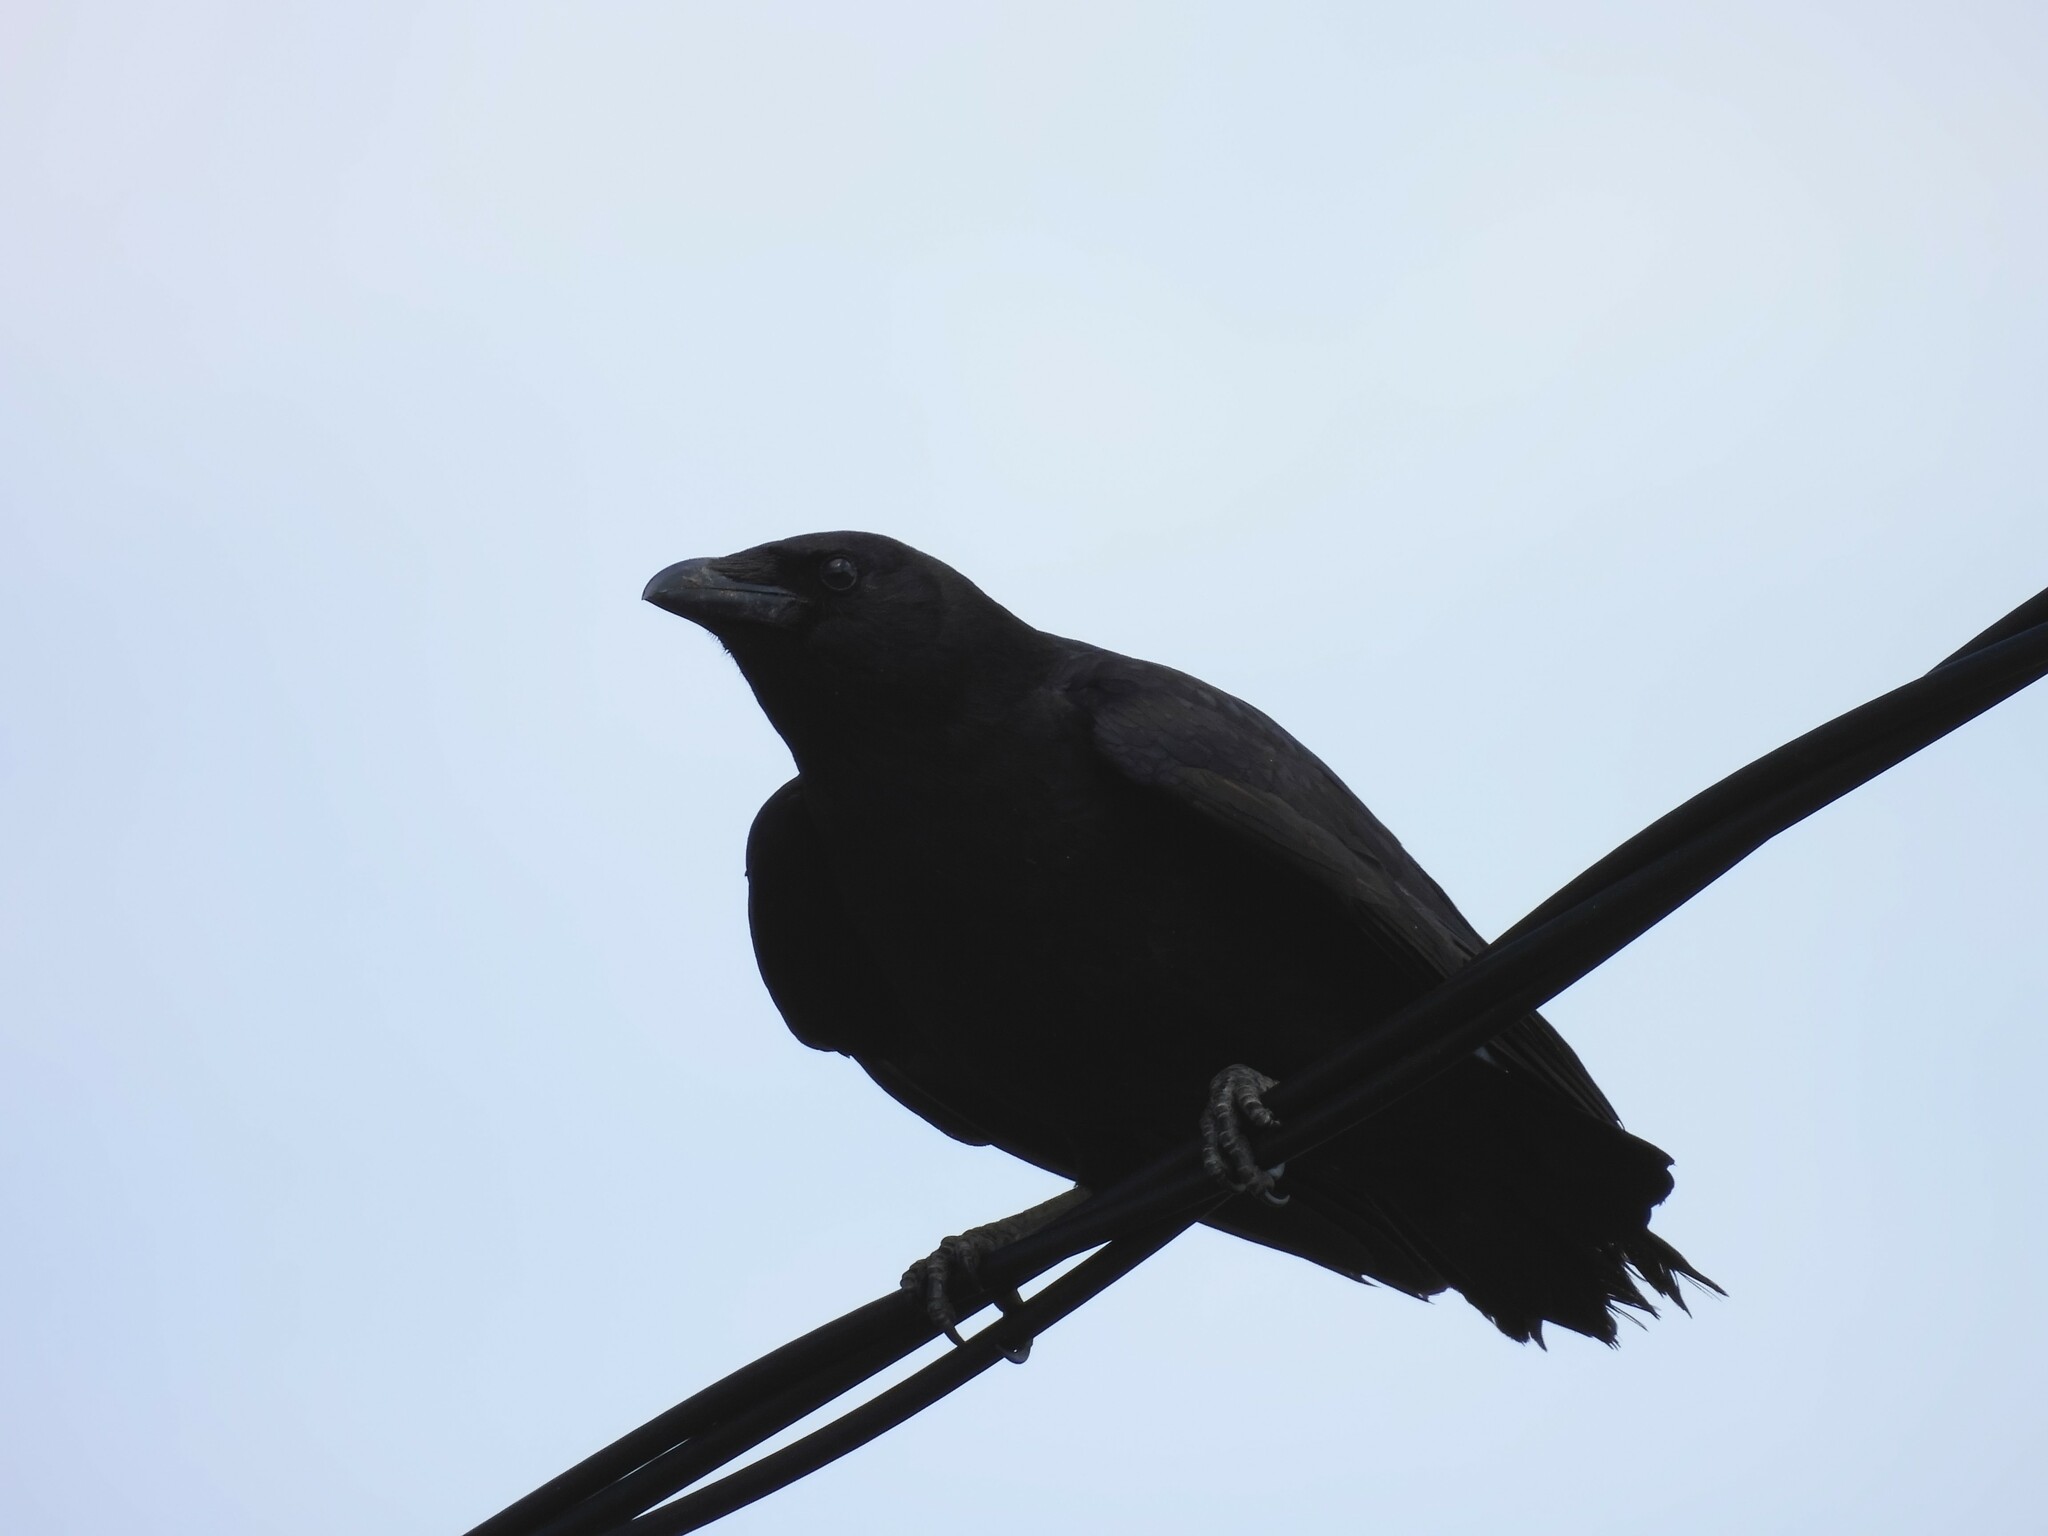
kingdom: Animalia
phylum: Chordata
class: Aves
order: Passeriformes
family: Corvidae
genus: Corvus
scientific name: Corvus brachyrhynchos
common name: American crow
